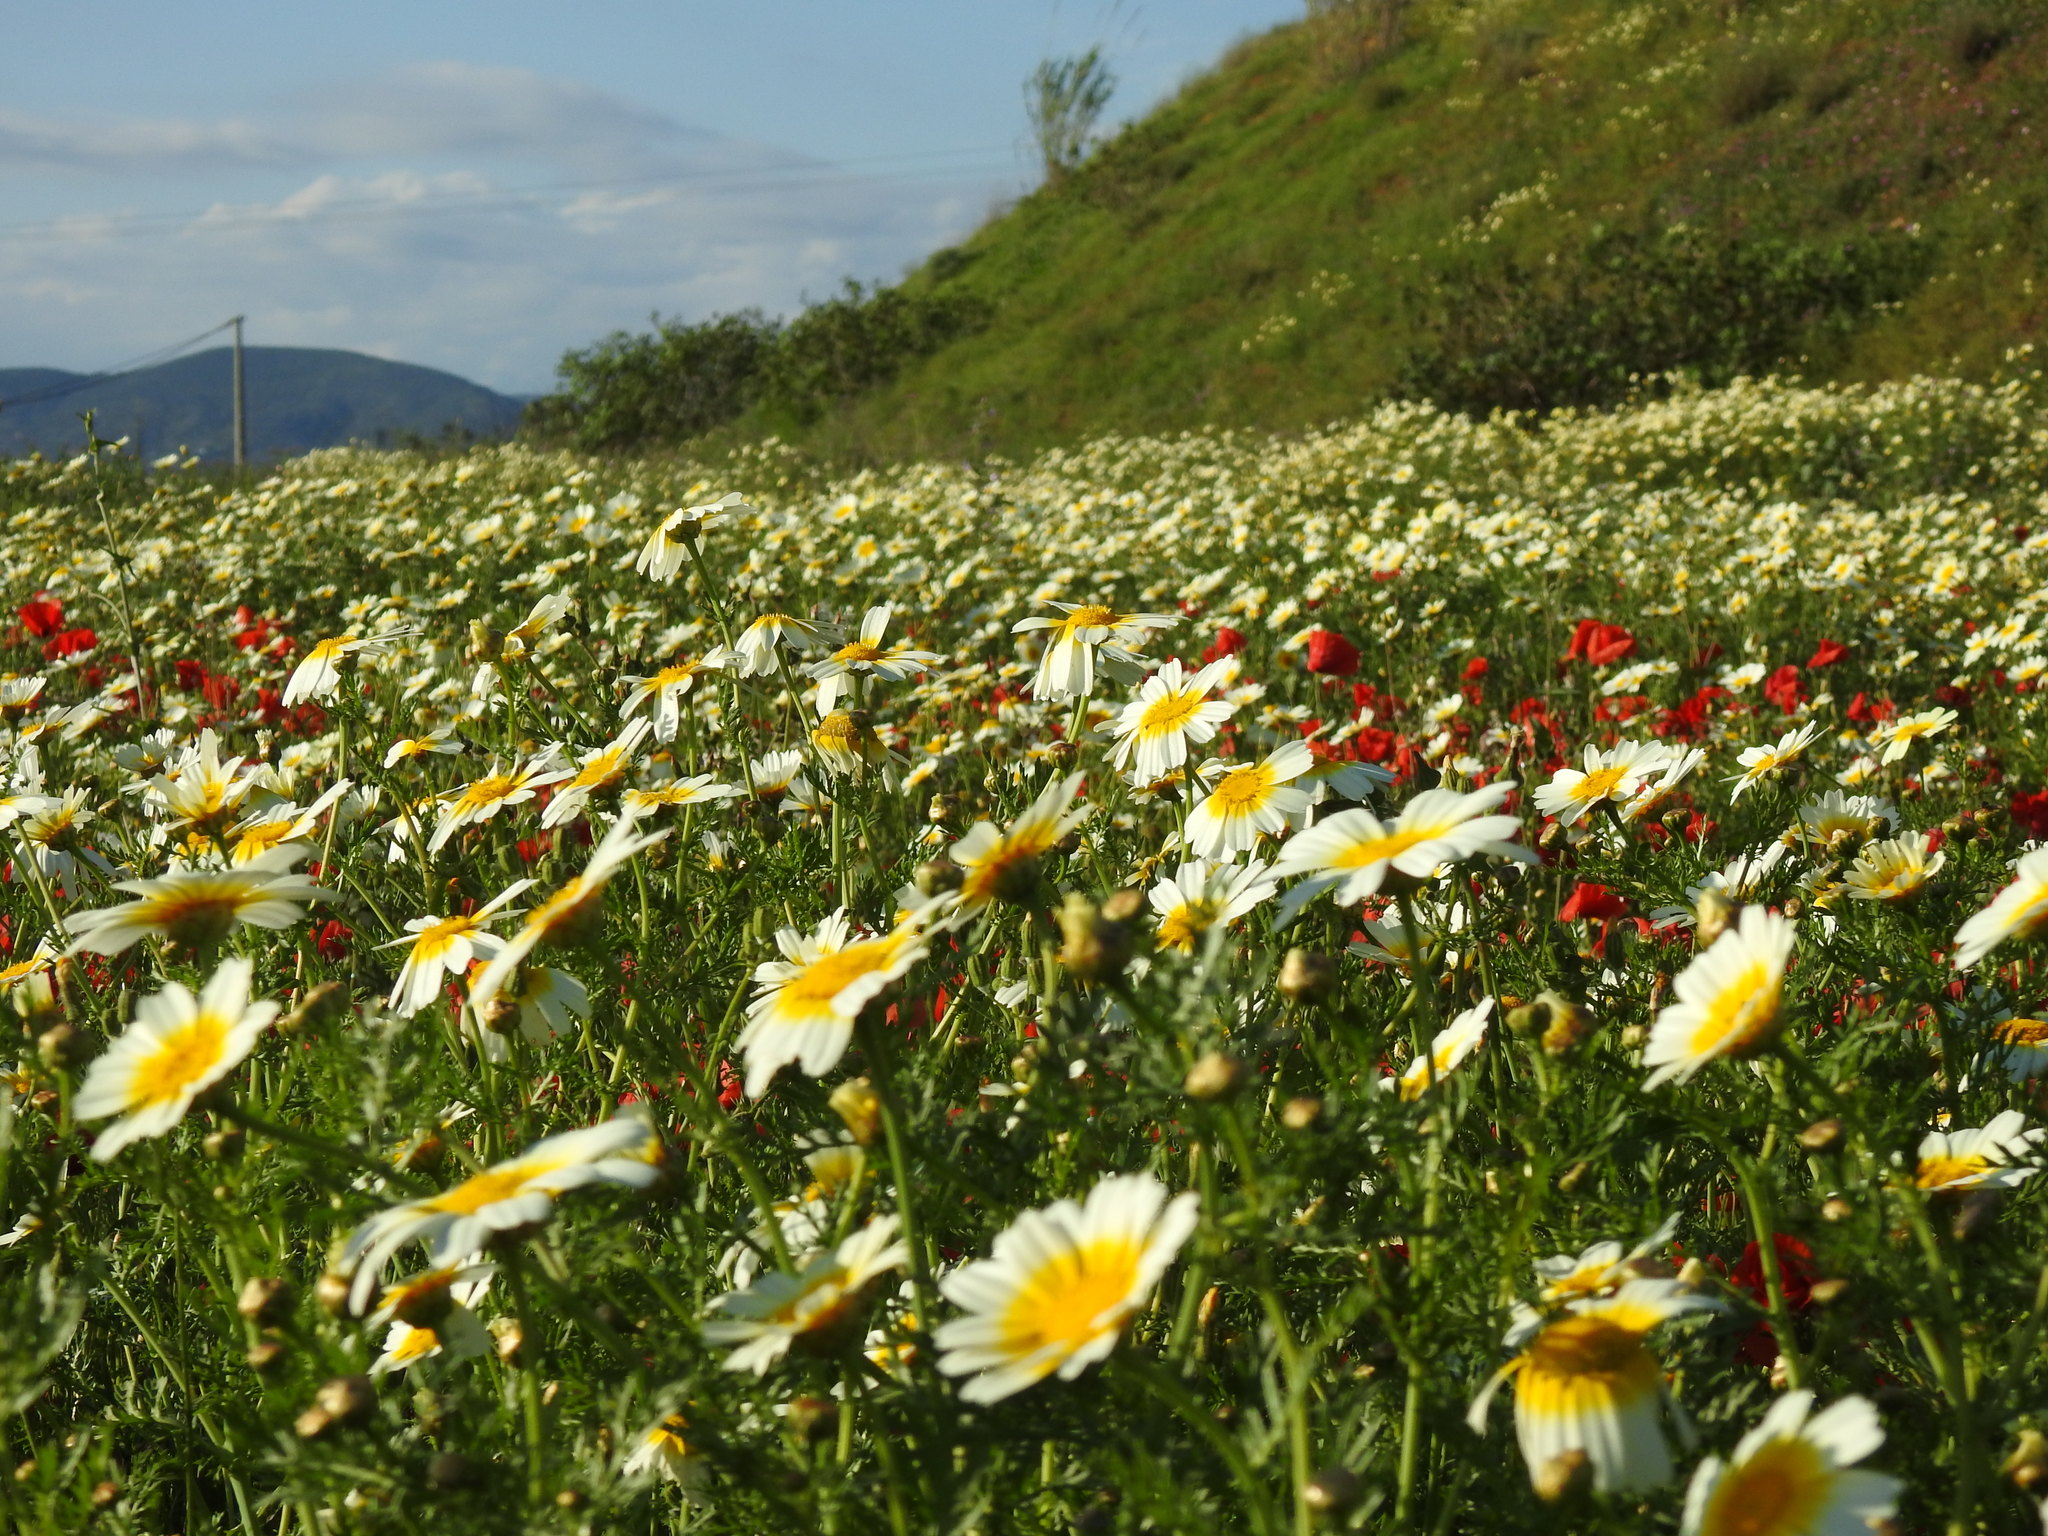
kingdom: Plantae
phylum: Tracheophyta
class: Magnoliopsida
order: Asterales
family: Asteraceae
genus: Glebionis
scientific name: Glebionis coronaria
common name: Crowndaisy
